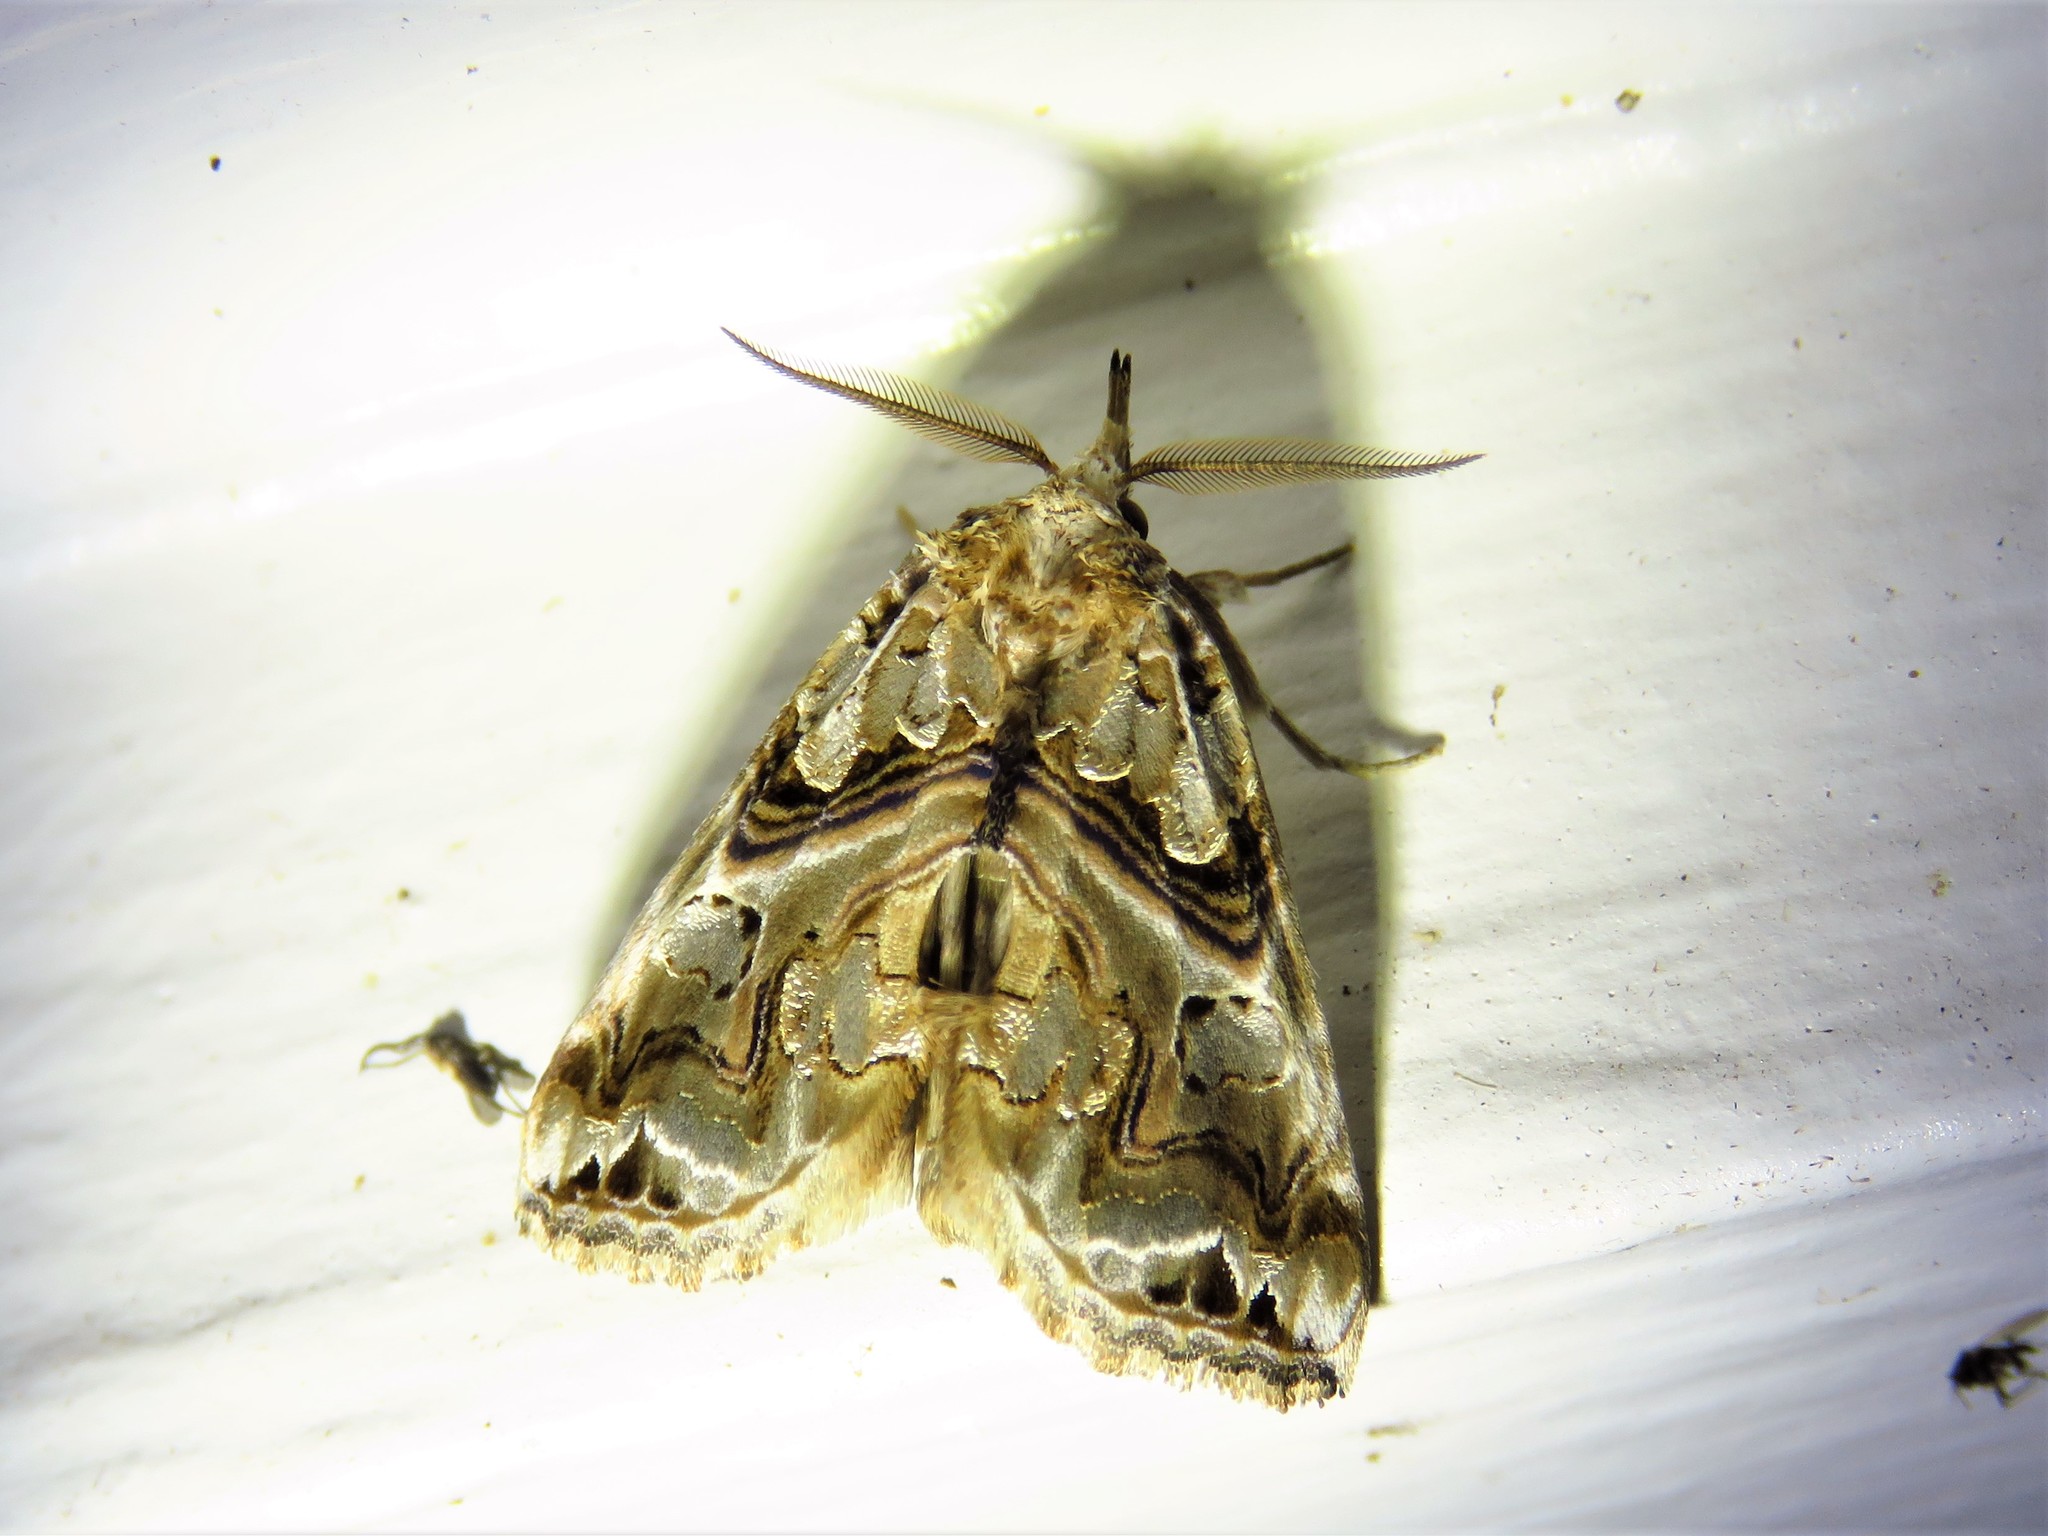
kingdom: Animalia
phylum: Arthropoda
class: Insecta
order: Lepidoptera
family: Erebidae
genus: Plusiodonta
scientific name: Plusiodonta compressipalpis
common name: Moonseed moth
